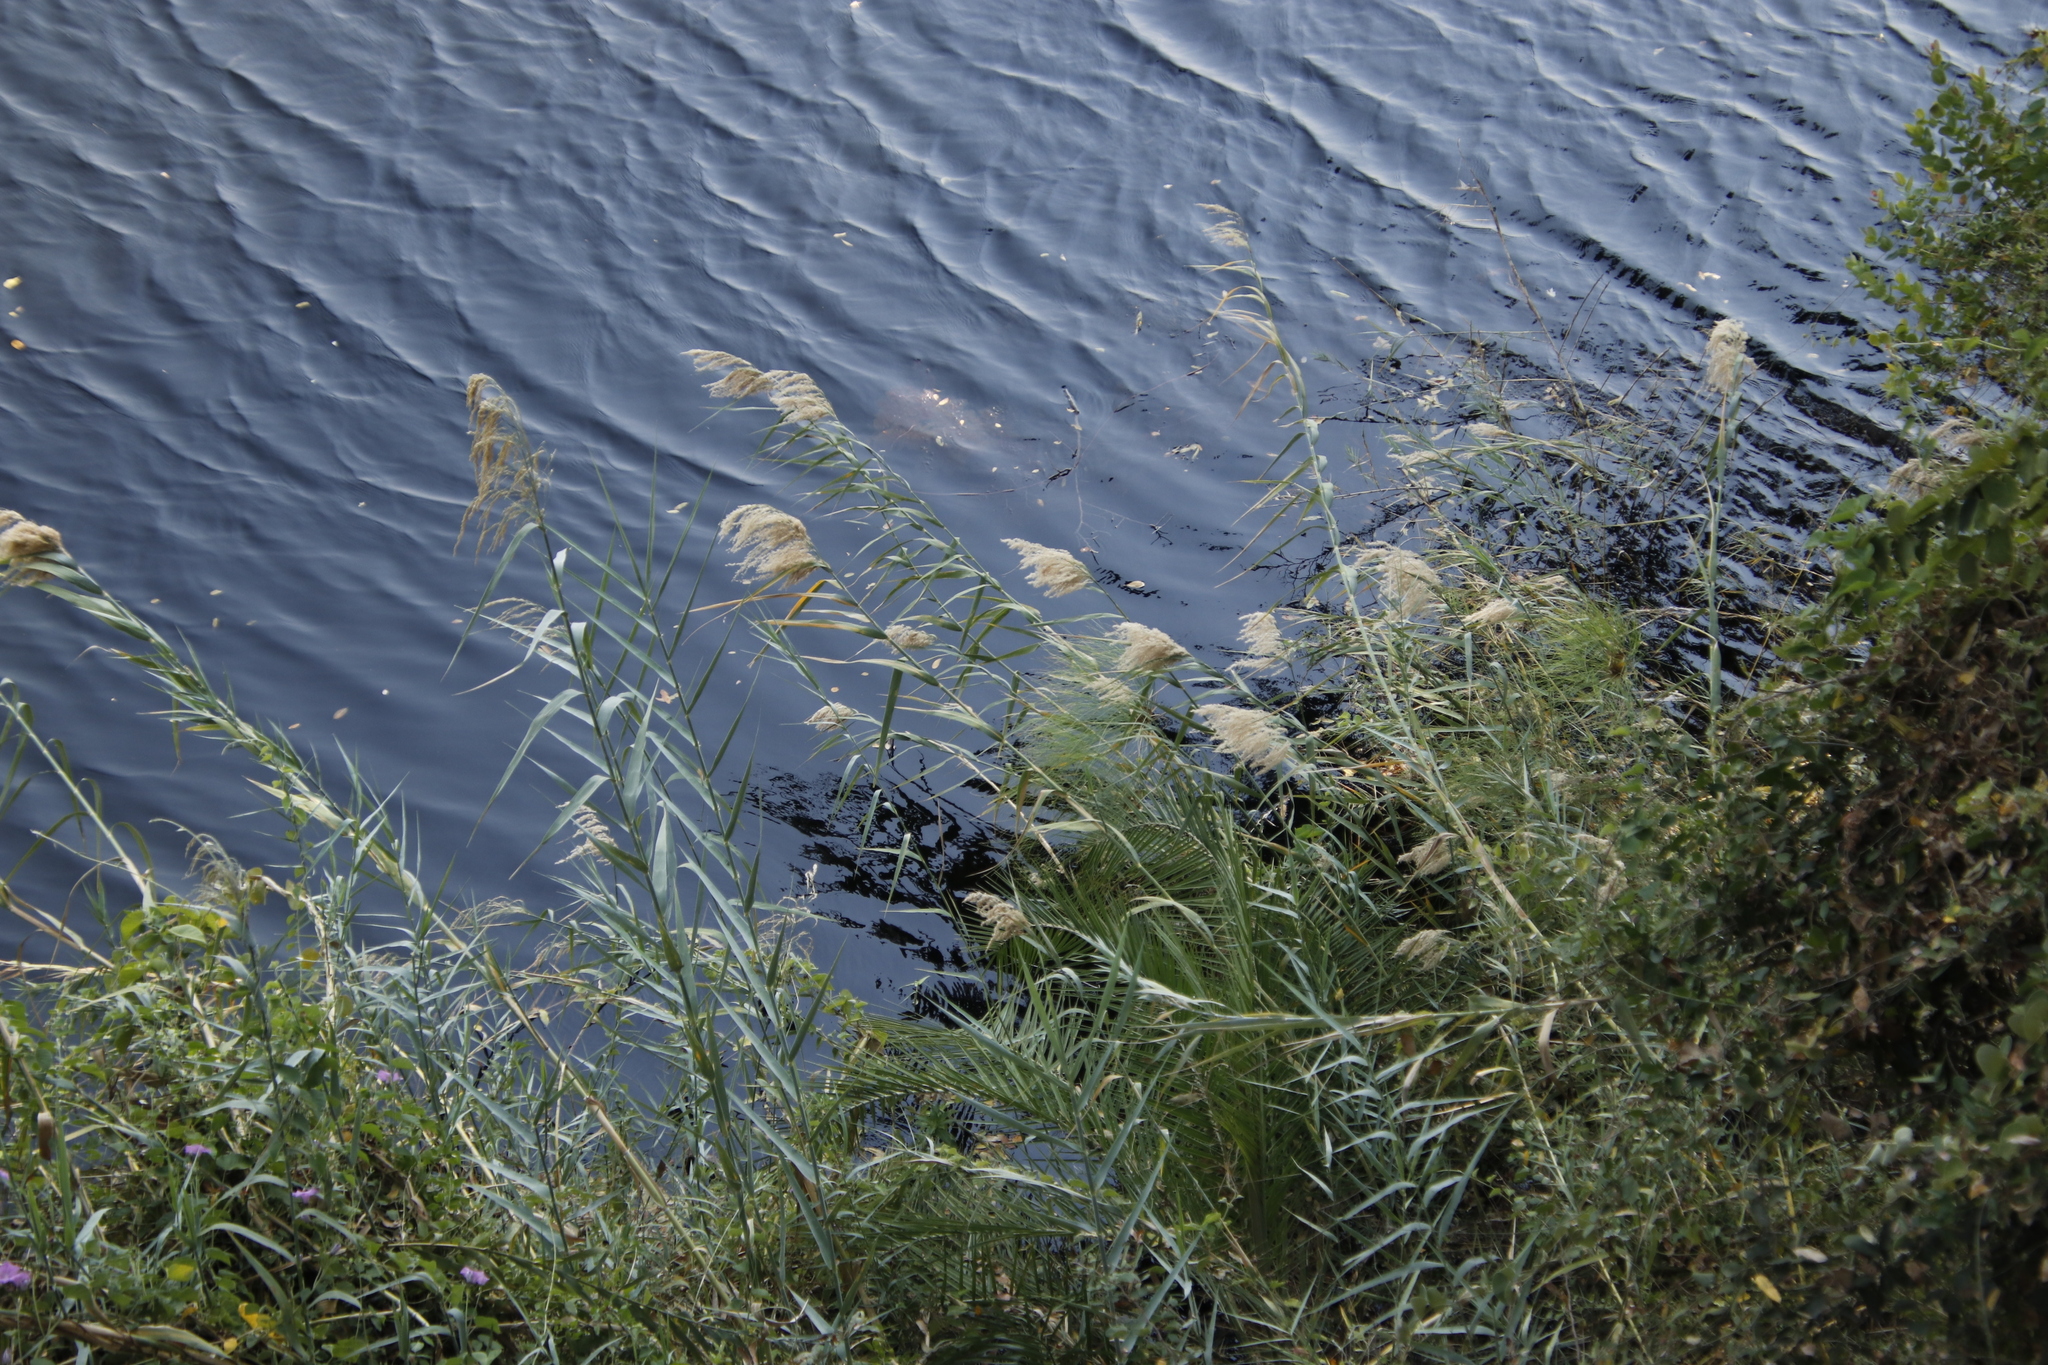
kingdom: Plantae
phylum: Tracheophyta
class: Liliopsida
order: Poales
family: Poaceae
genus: Phragmites
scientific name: Phragmites australis
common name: Common reed
